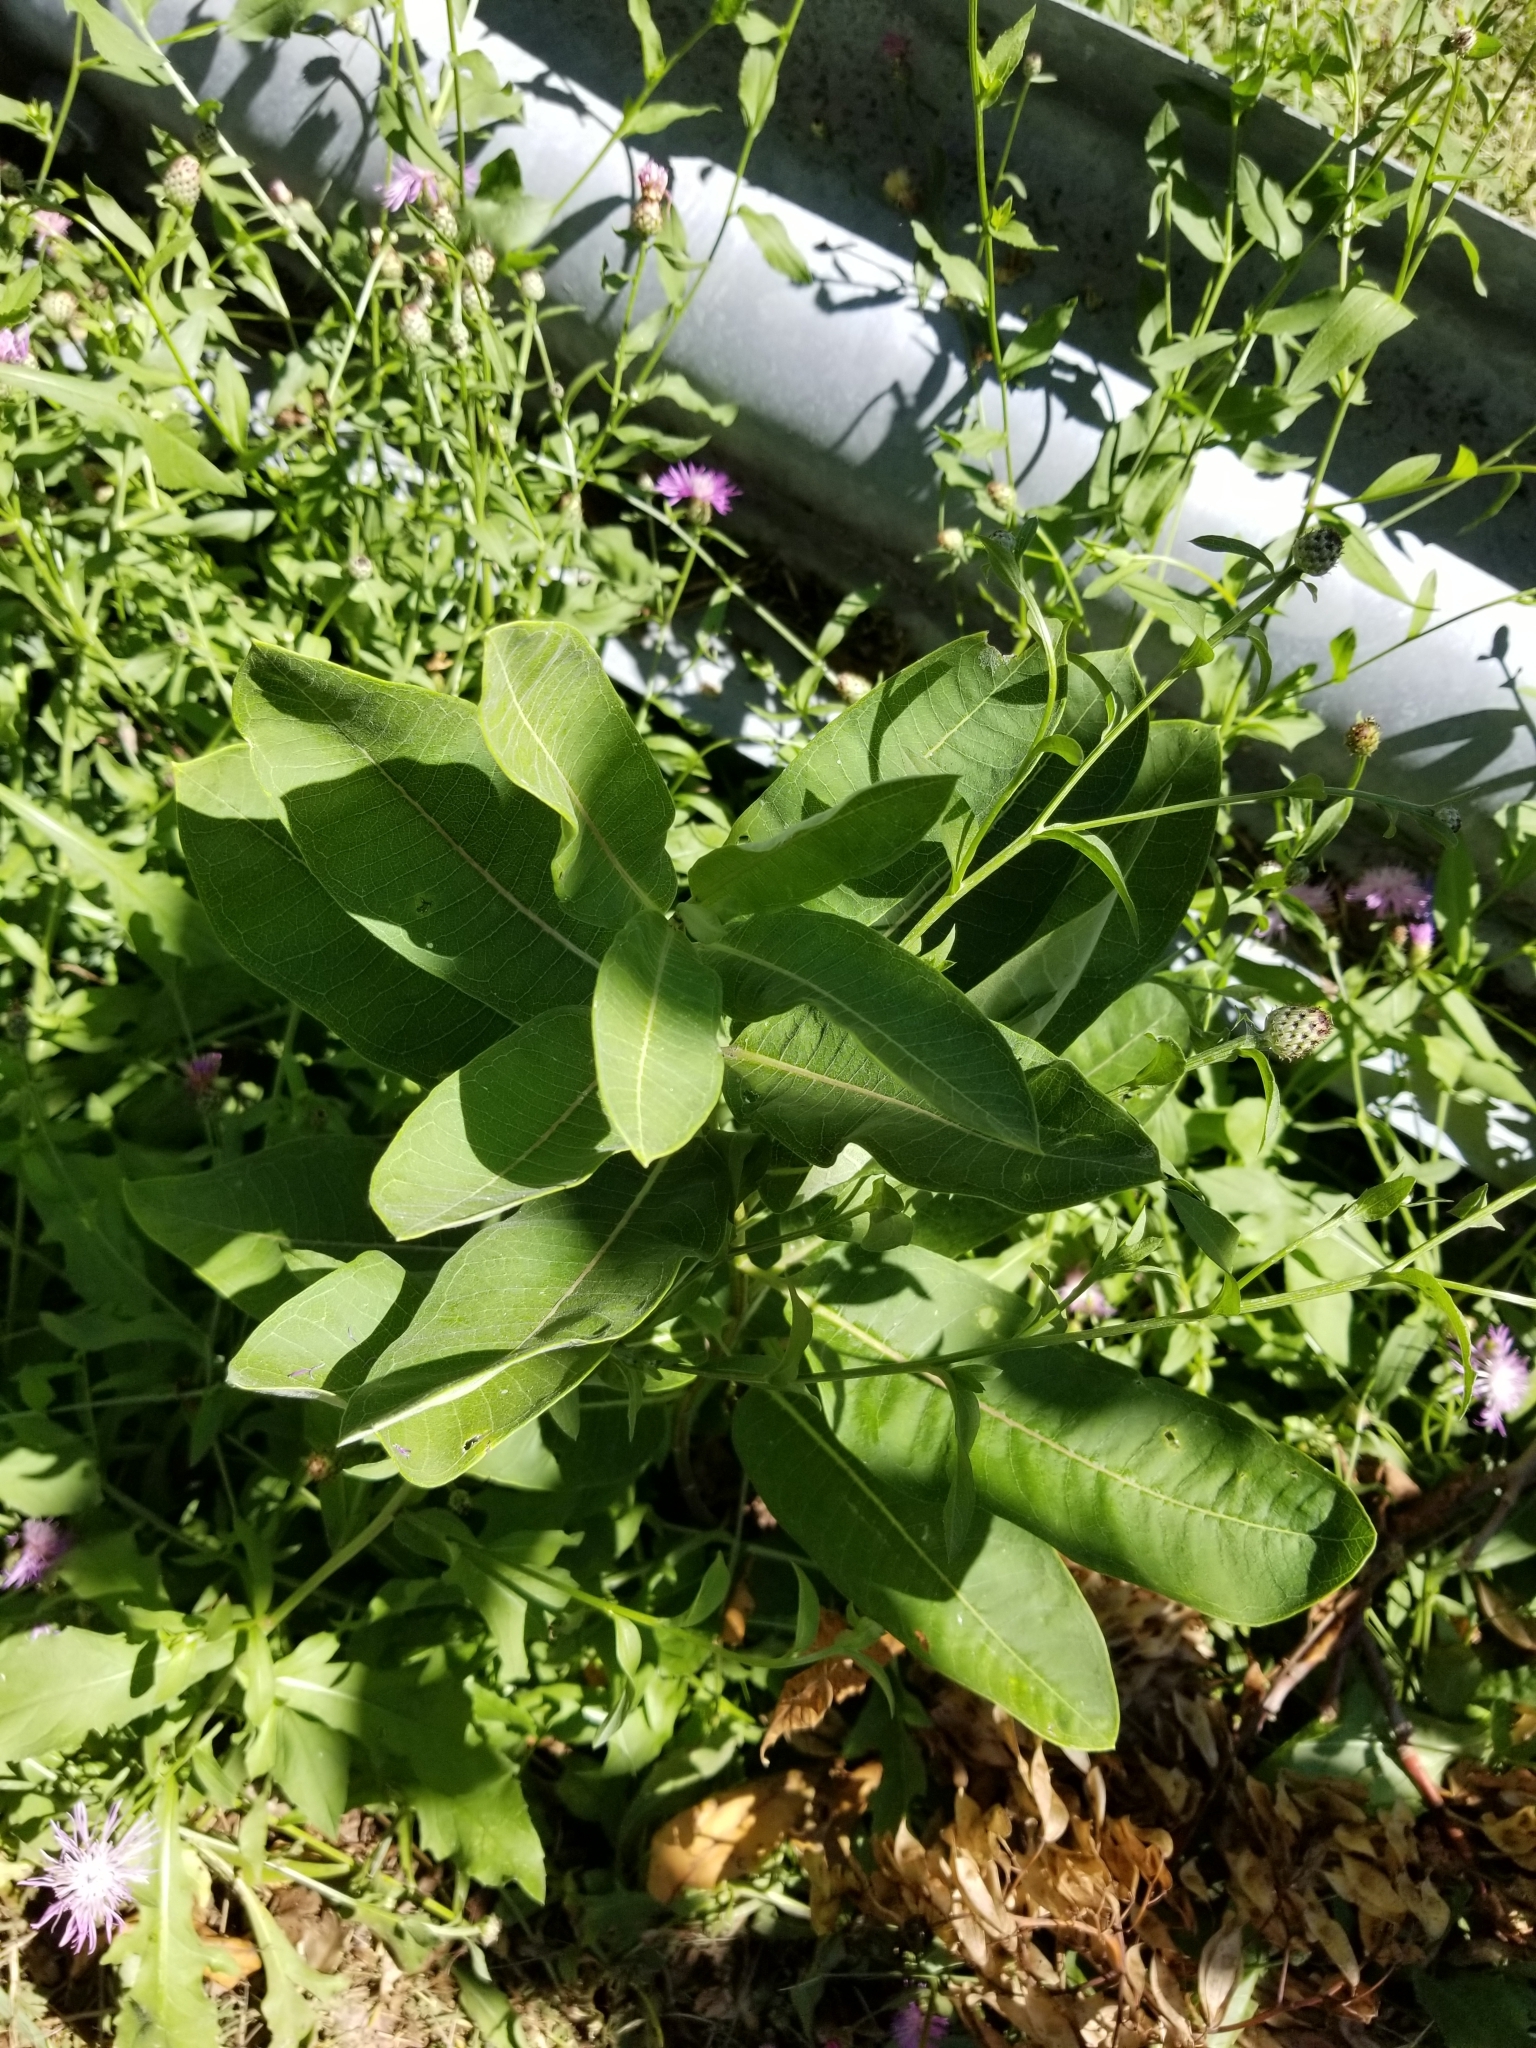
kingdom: Plantae
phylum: Tracheophyta
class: Magnoliopsida
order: Gentianales
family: Apocynaceae
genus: Asclepias
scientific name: Asclepias syriaca
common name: Common milkweed
